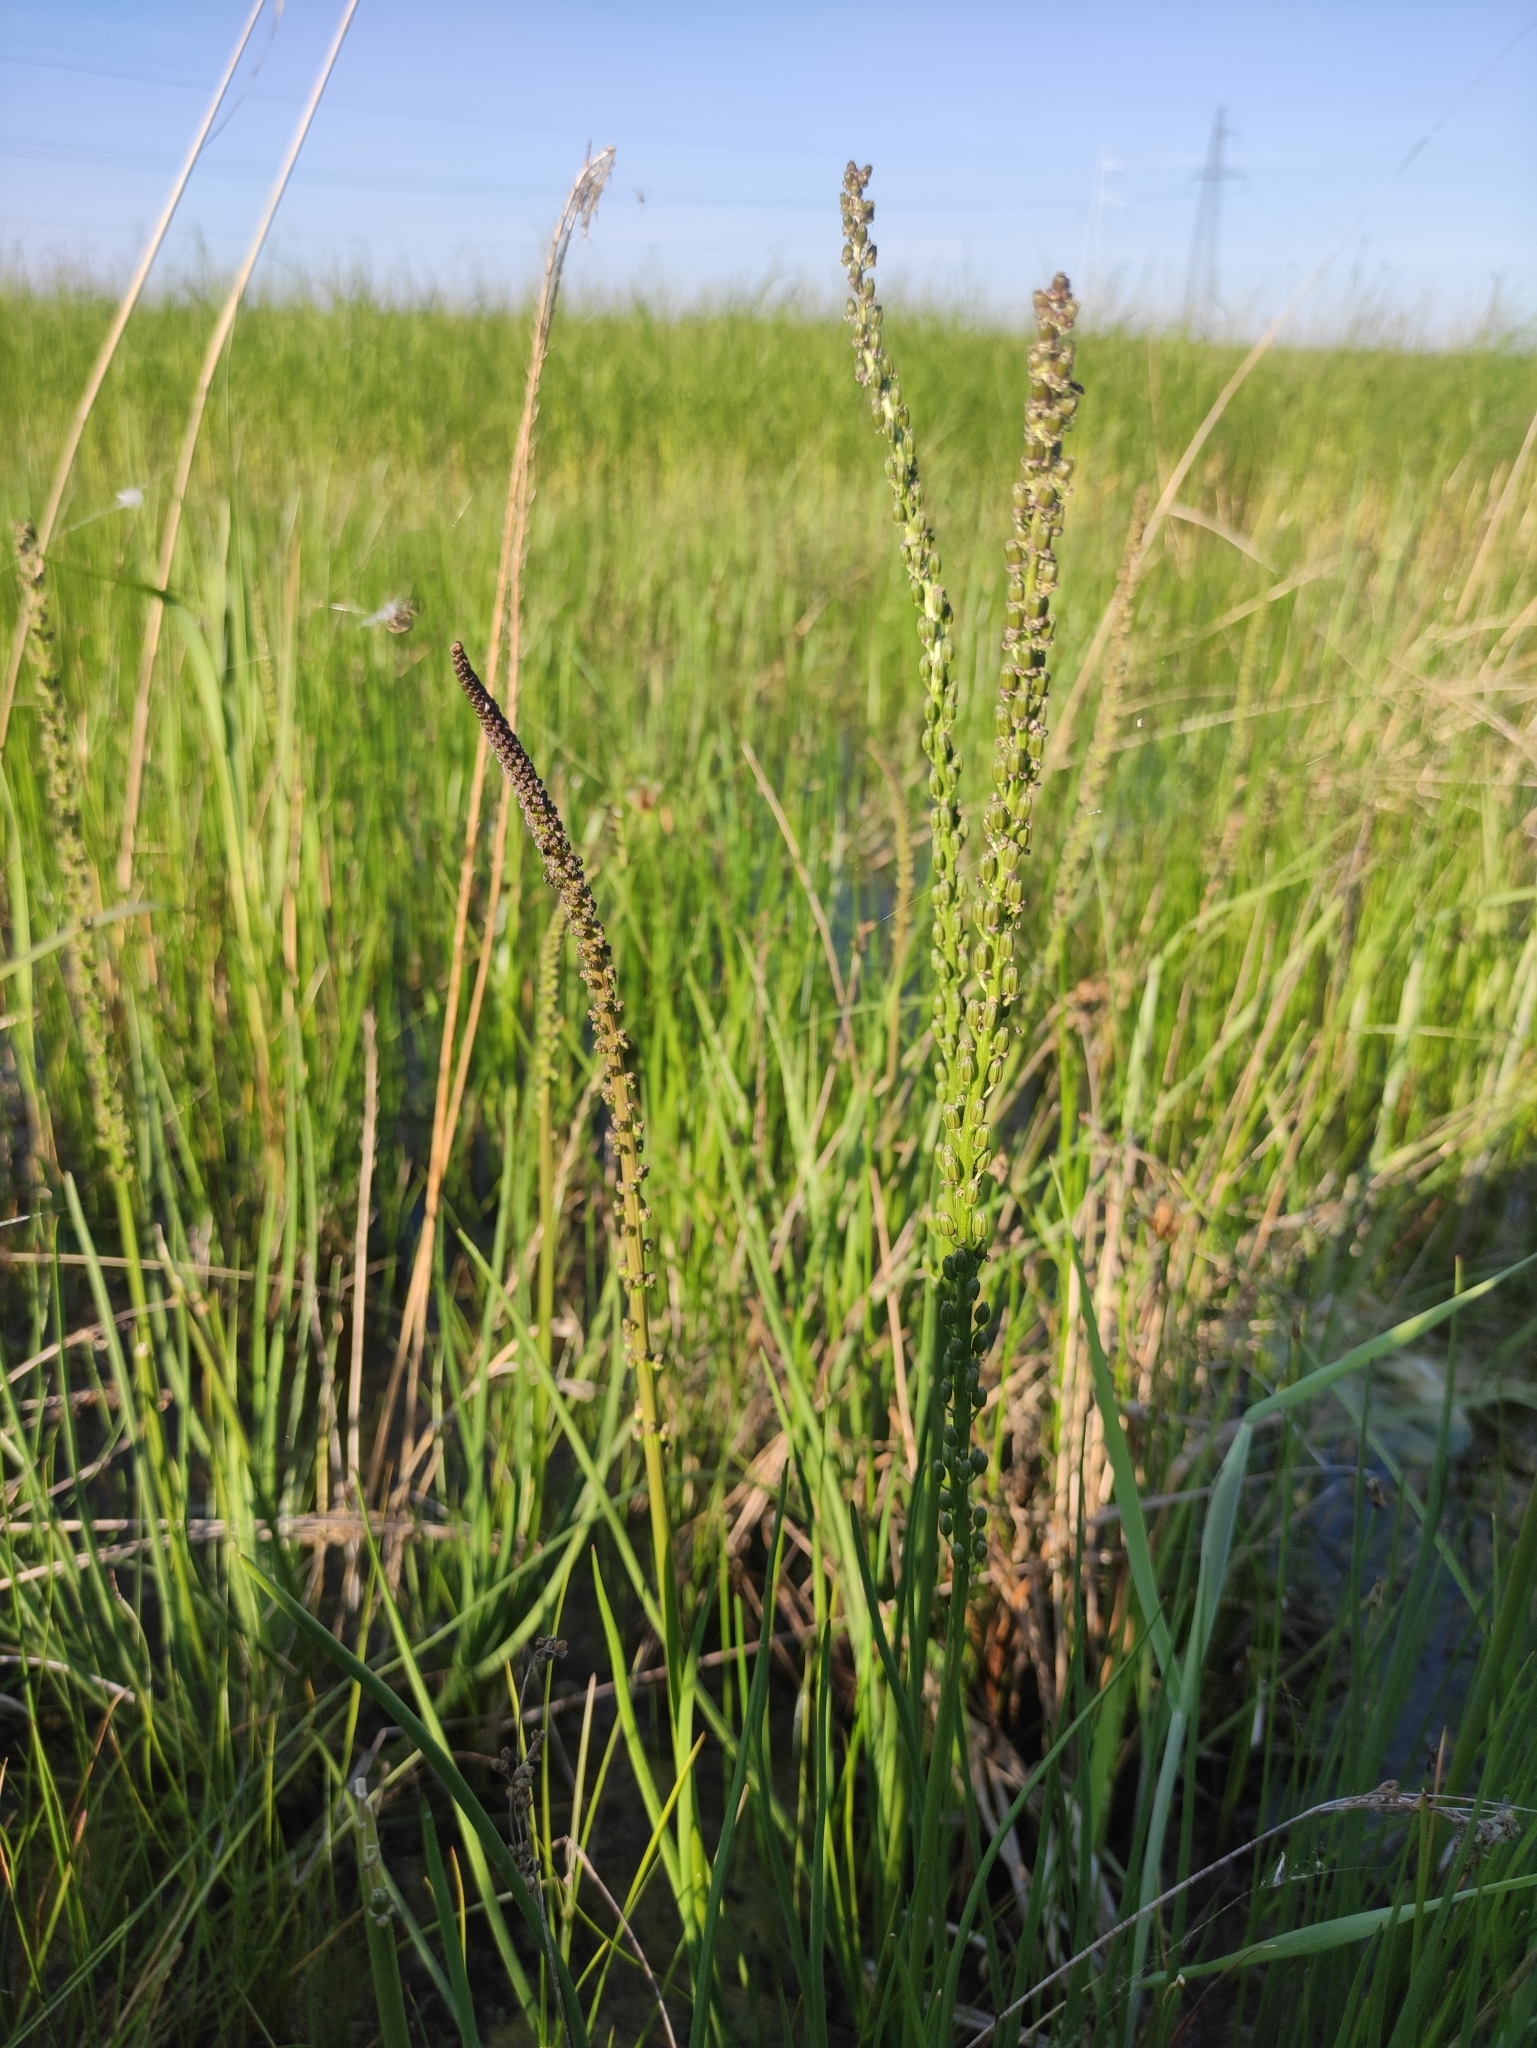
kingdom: Plantae
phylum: Tracheophyta
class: Liliopsida
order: Alismatales
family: Juncaginaceae
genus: Triglochin
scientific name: Triglochin maritima
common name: Sea arrowgrass
